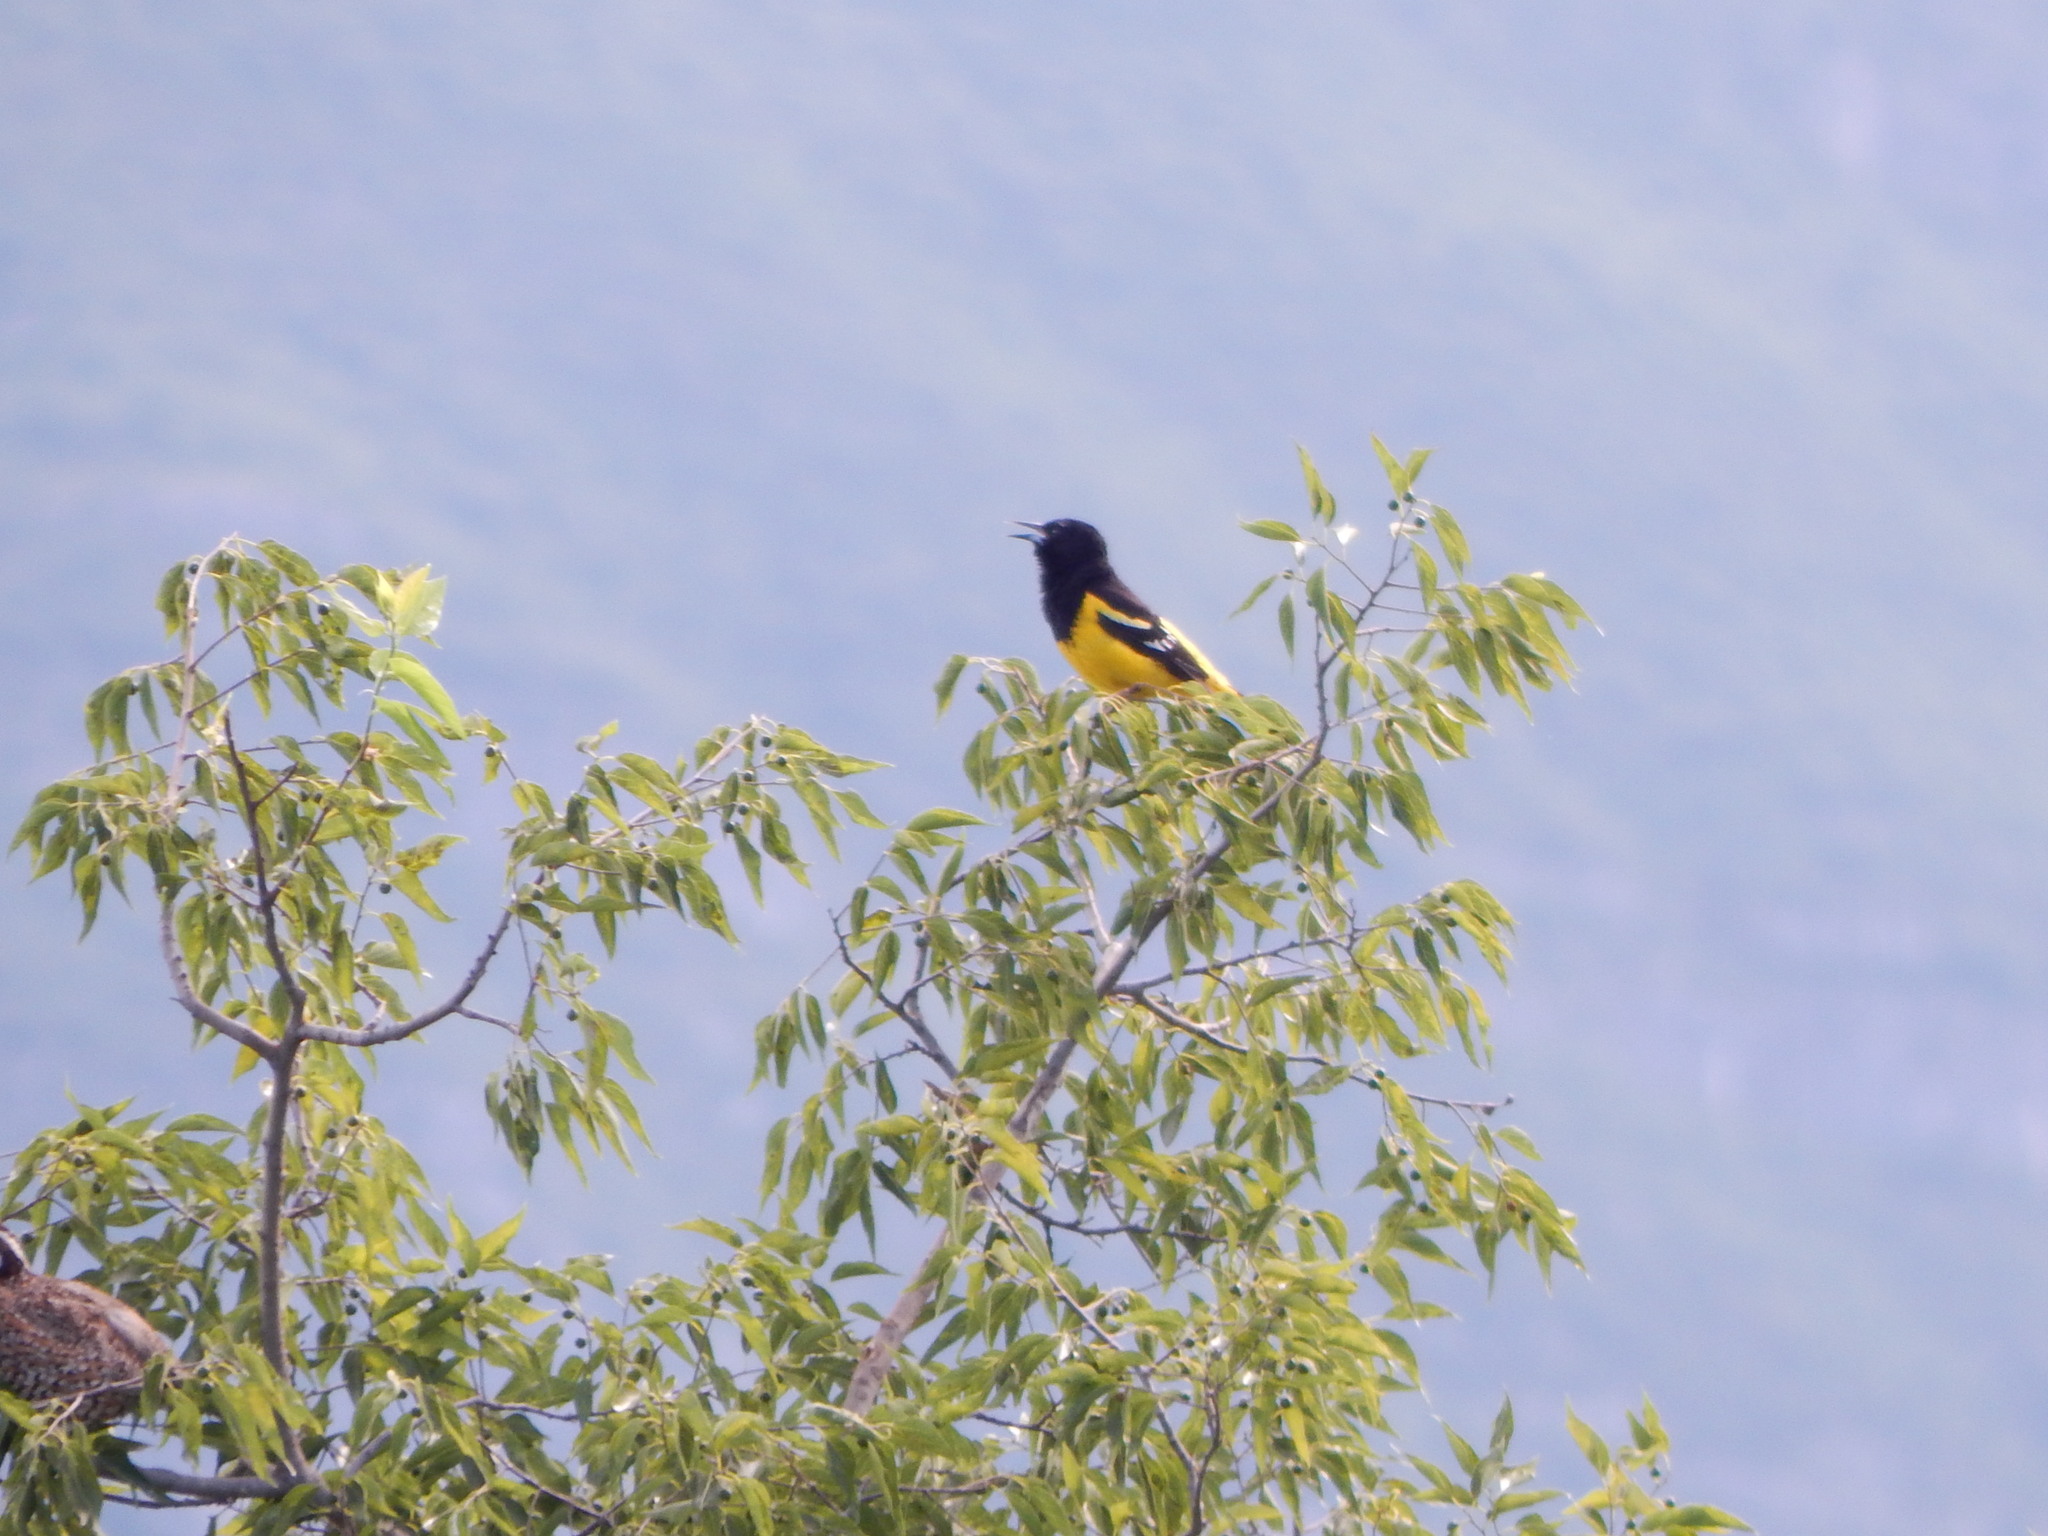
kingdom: Animalia
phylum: Chordata
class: Aves
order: Passeriformes
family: Icteridae
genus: Icterus
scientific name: Icterus parisorum
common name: Scott's oriole
